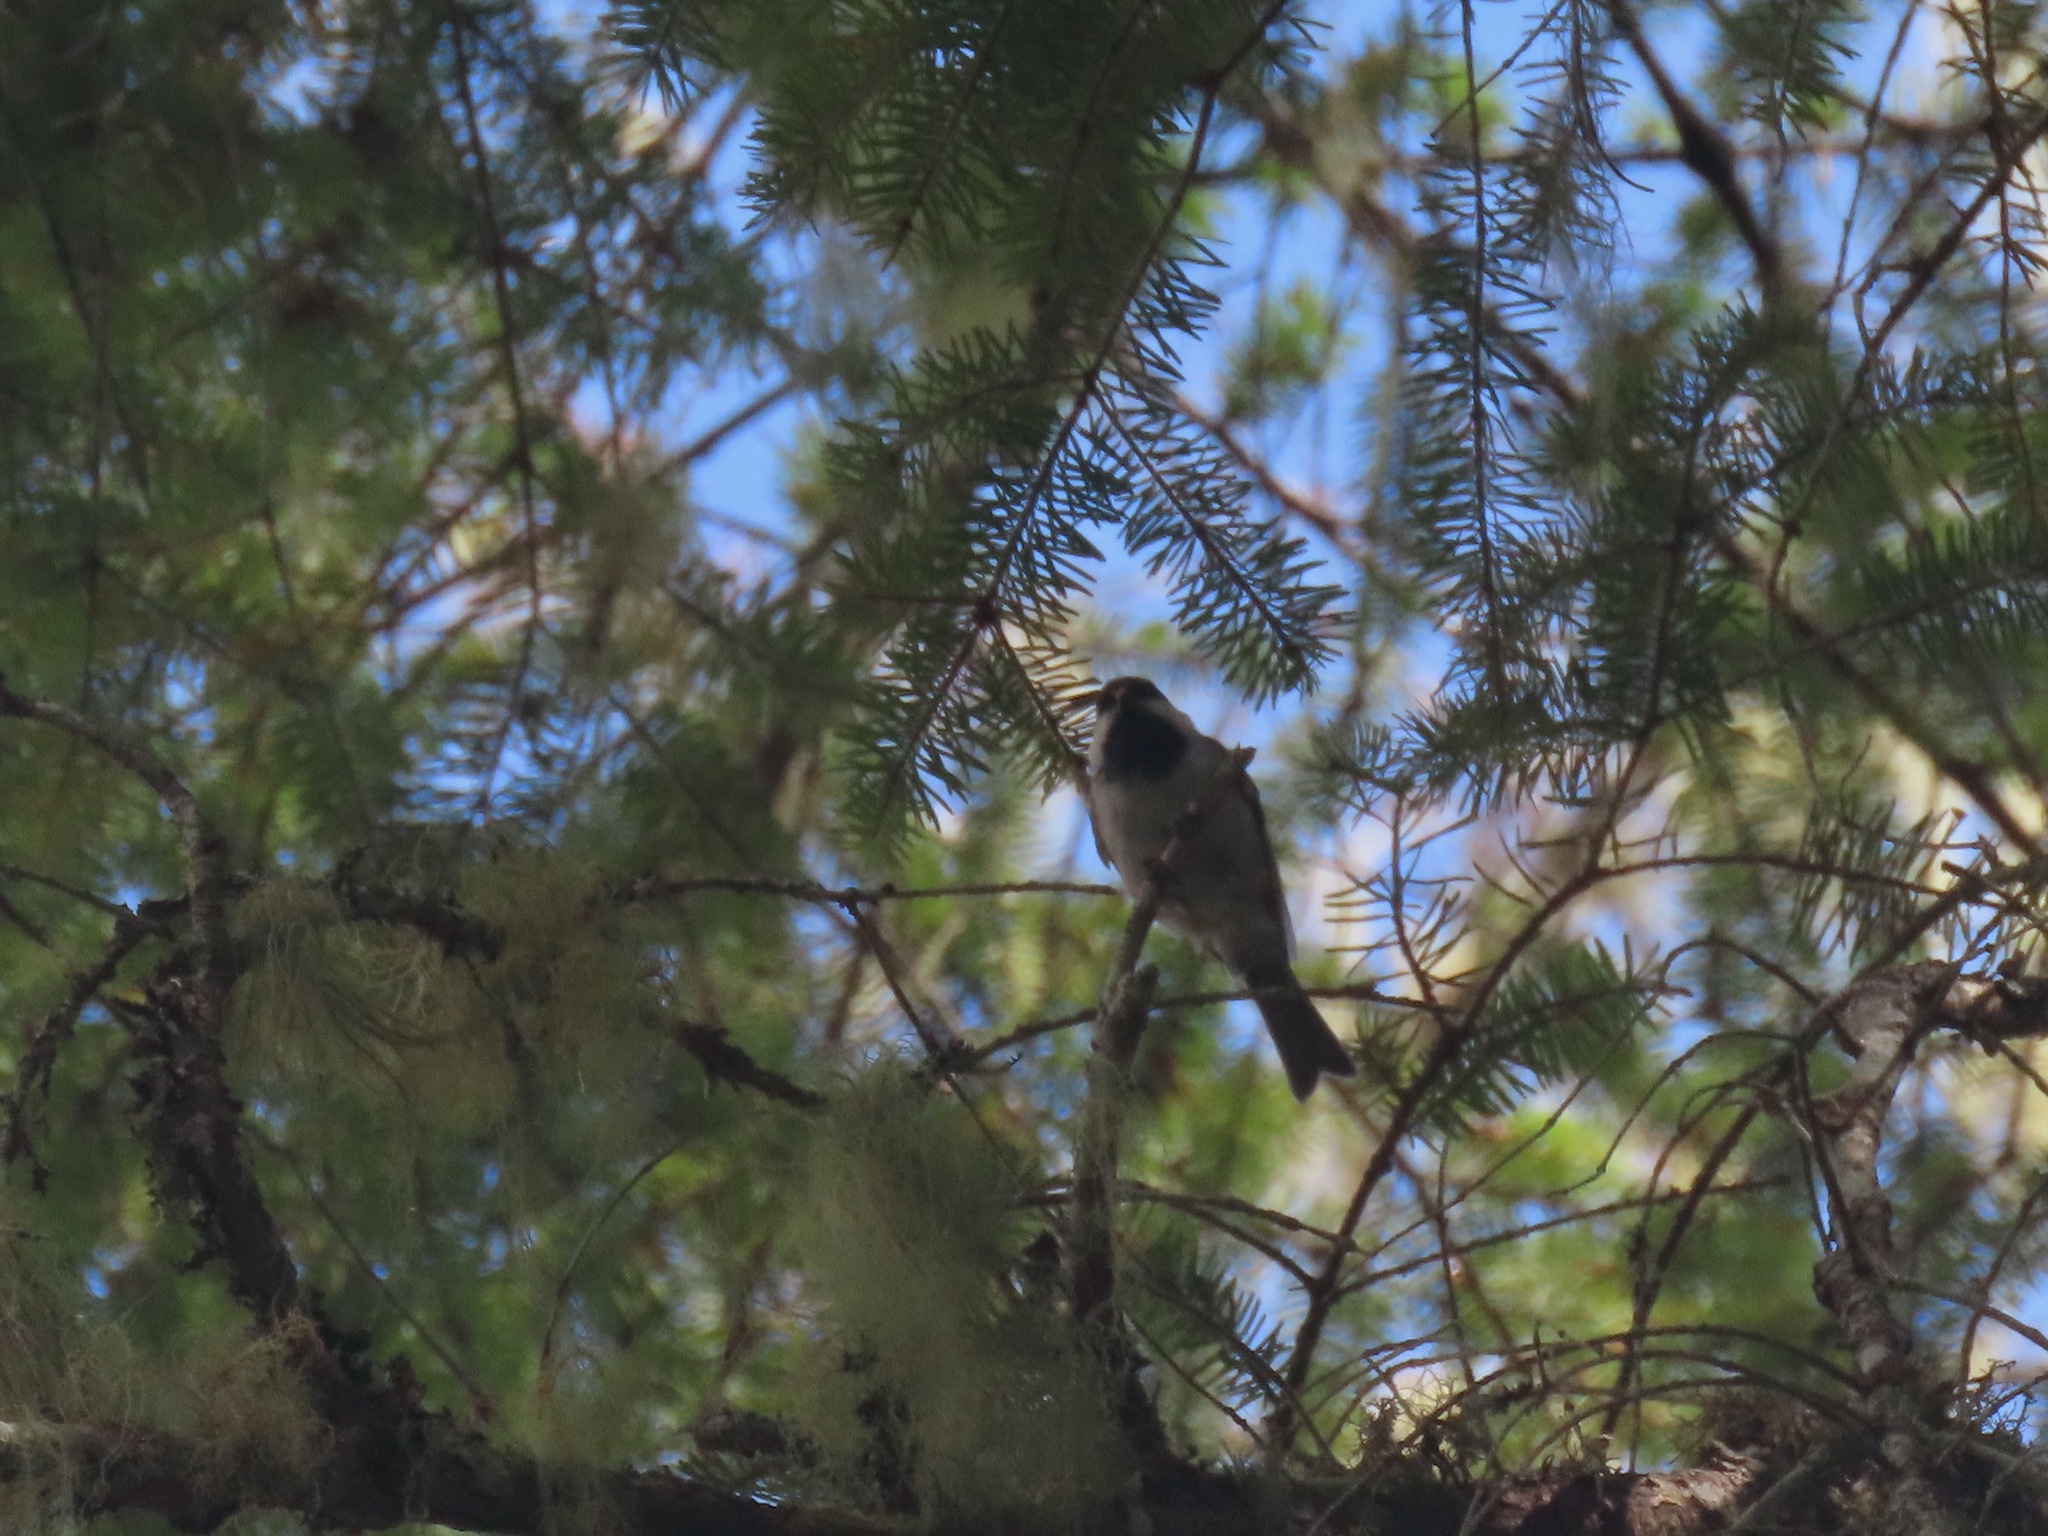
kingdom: Animalia
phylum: Chordata
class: Aves
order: Passeriformes
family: Paridae
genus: Poecile
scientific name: Poecile rufescens
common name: Chestnut-backed chickadee
